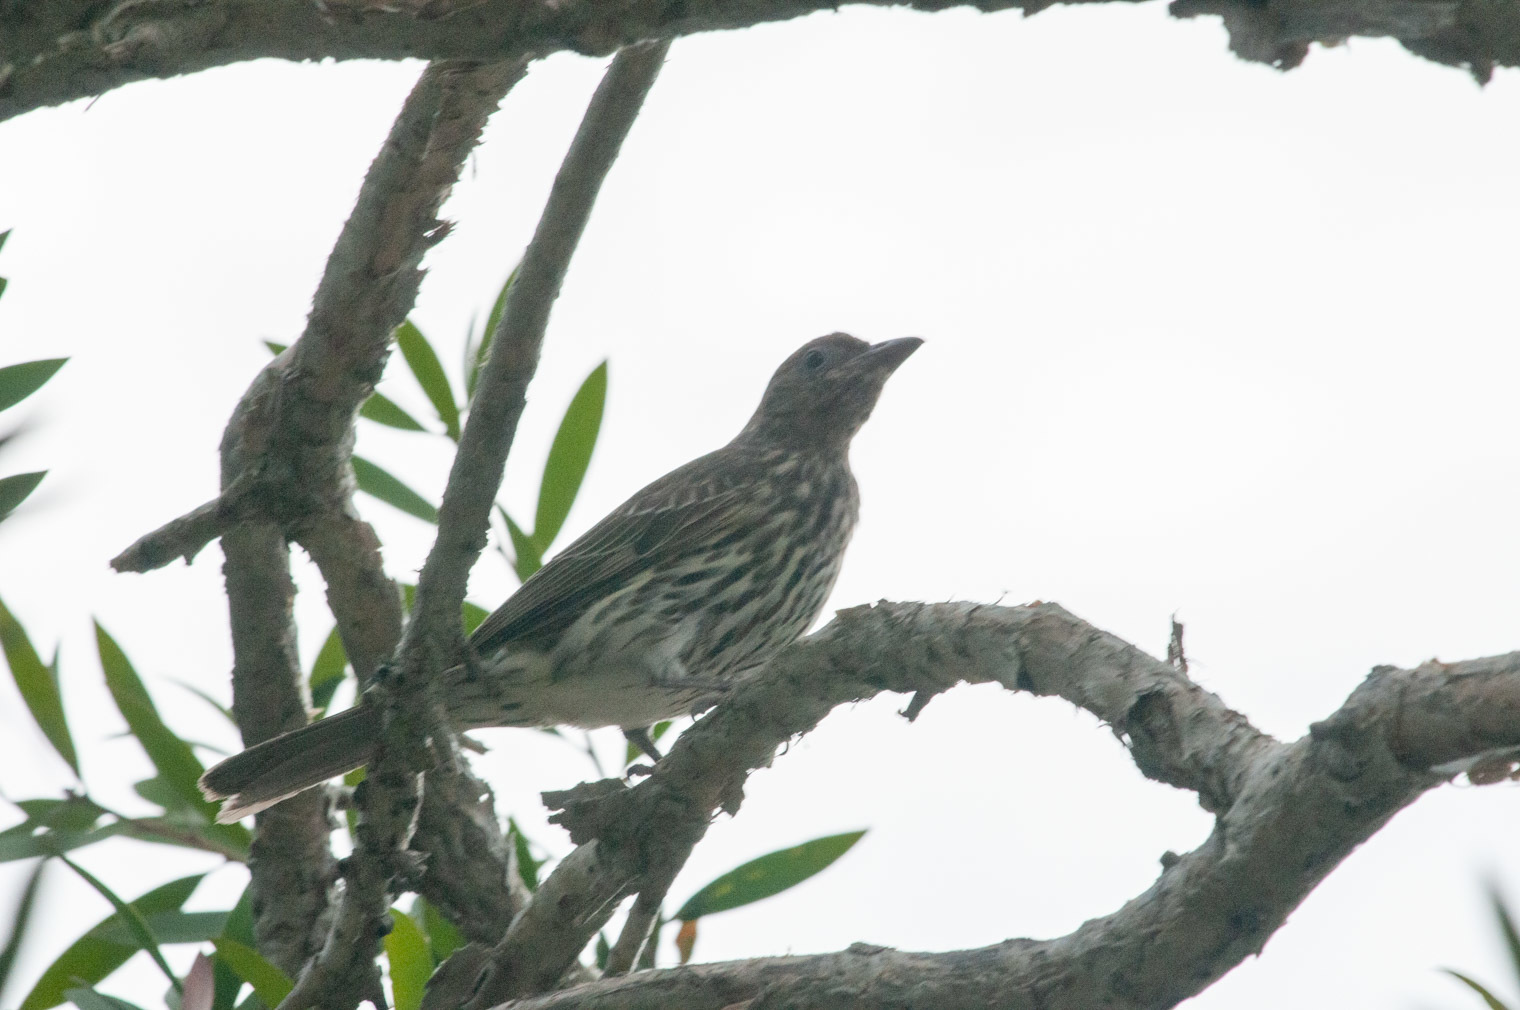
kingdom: Animalia
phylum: Chordata
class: Aves
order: Passeriformes
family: Oriolidae
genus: Sphecotheres
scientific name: Sphecotheres vieilloti
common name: Australasian figbird
